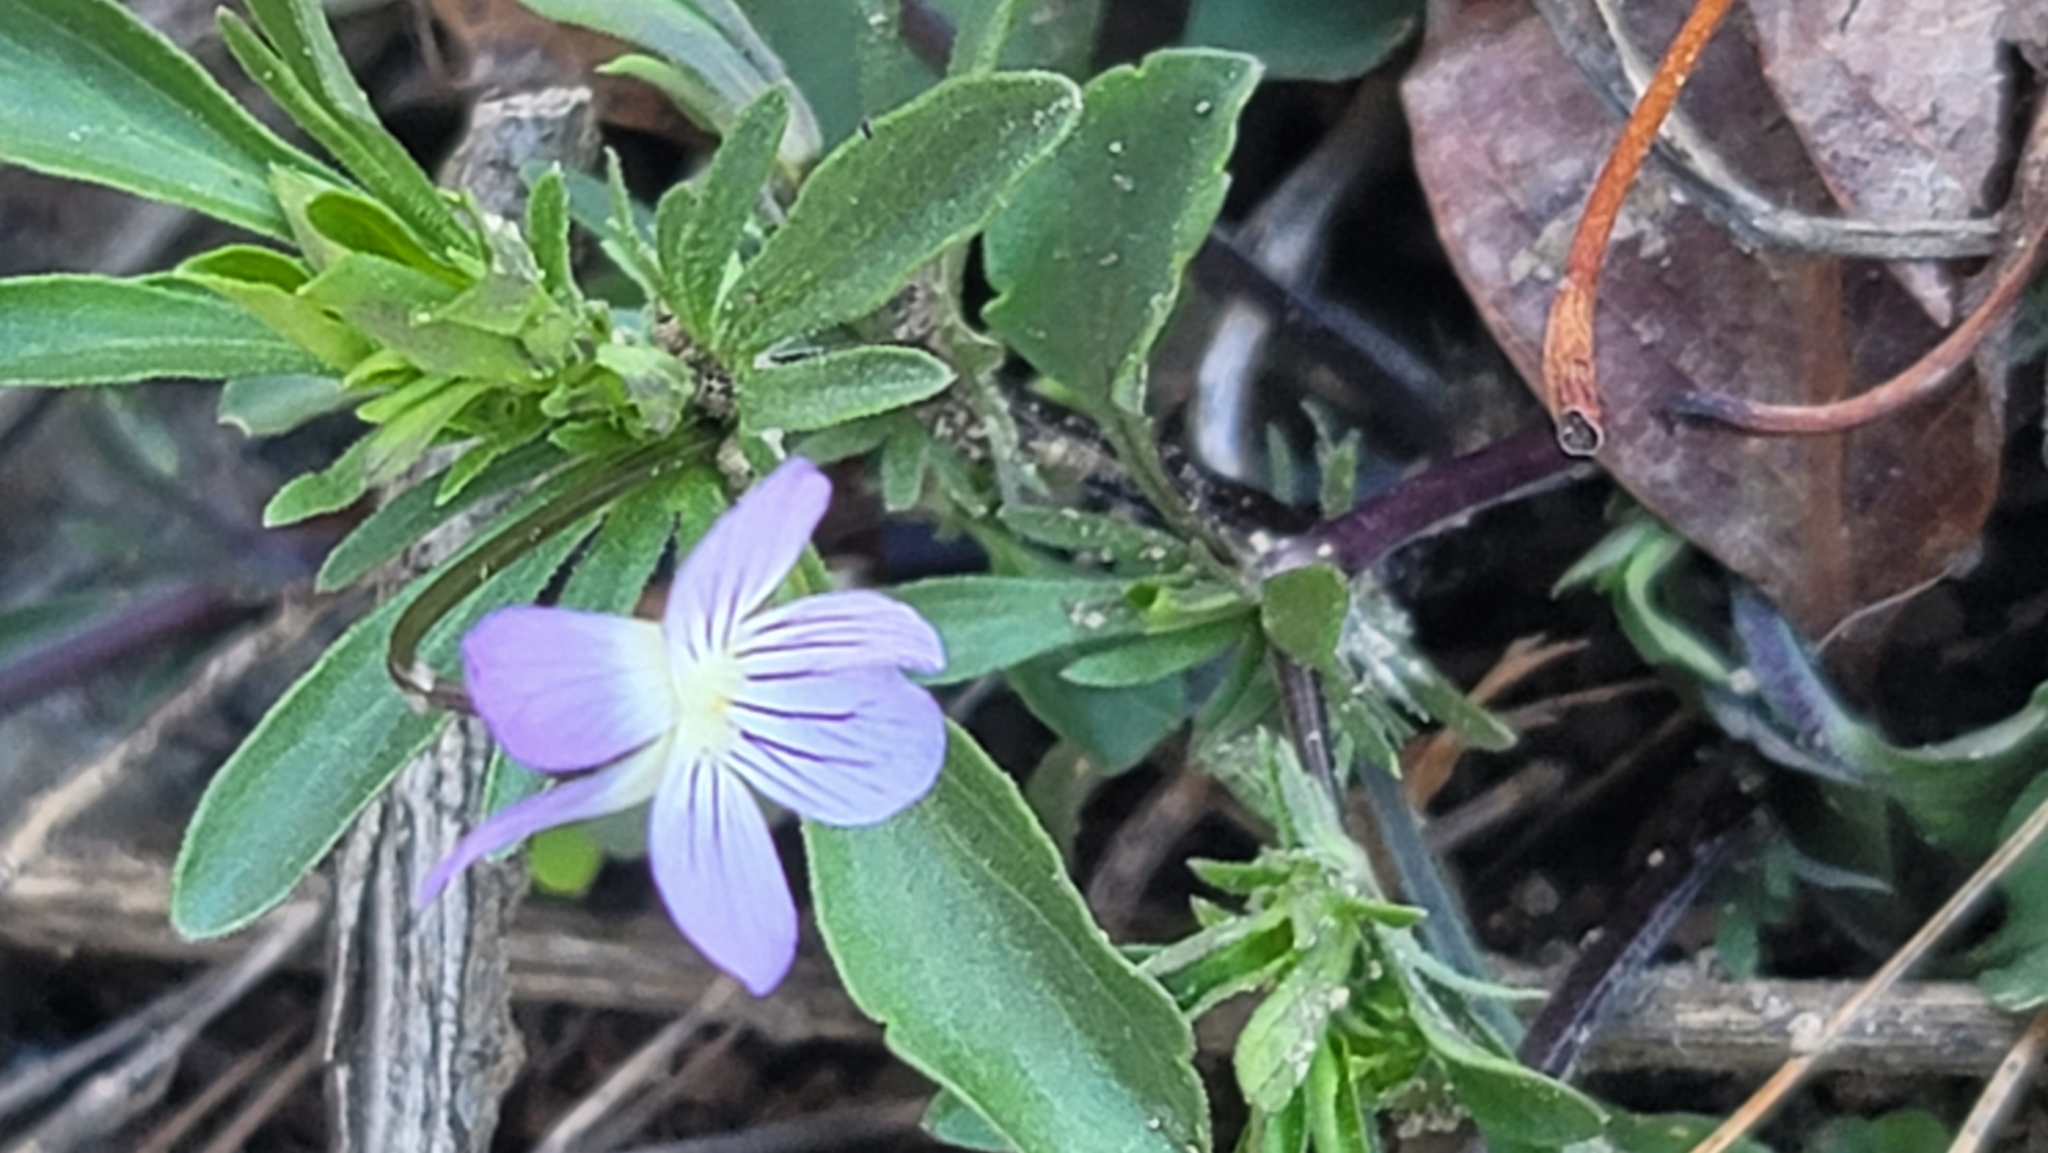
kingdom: Plantae
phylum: Tracheophyta
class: Magnoliopsida
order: Malpighiales
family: Violaceae
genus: Viola
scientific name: Viola rafinesquei
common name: American field pansy
